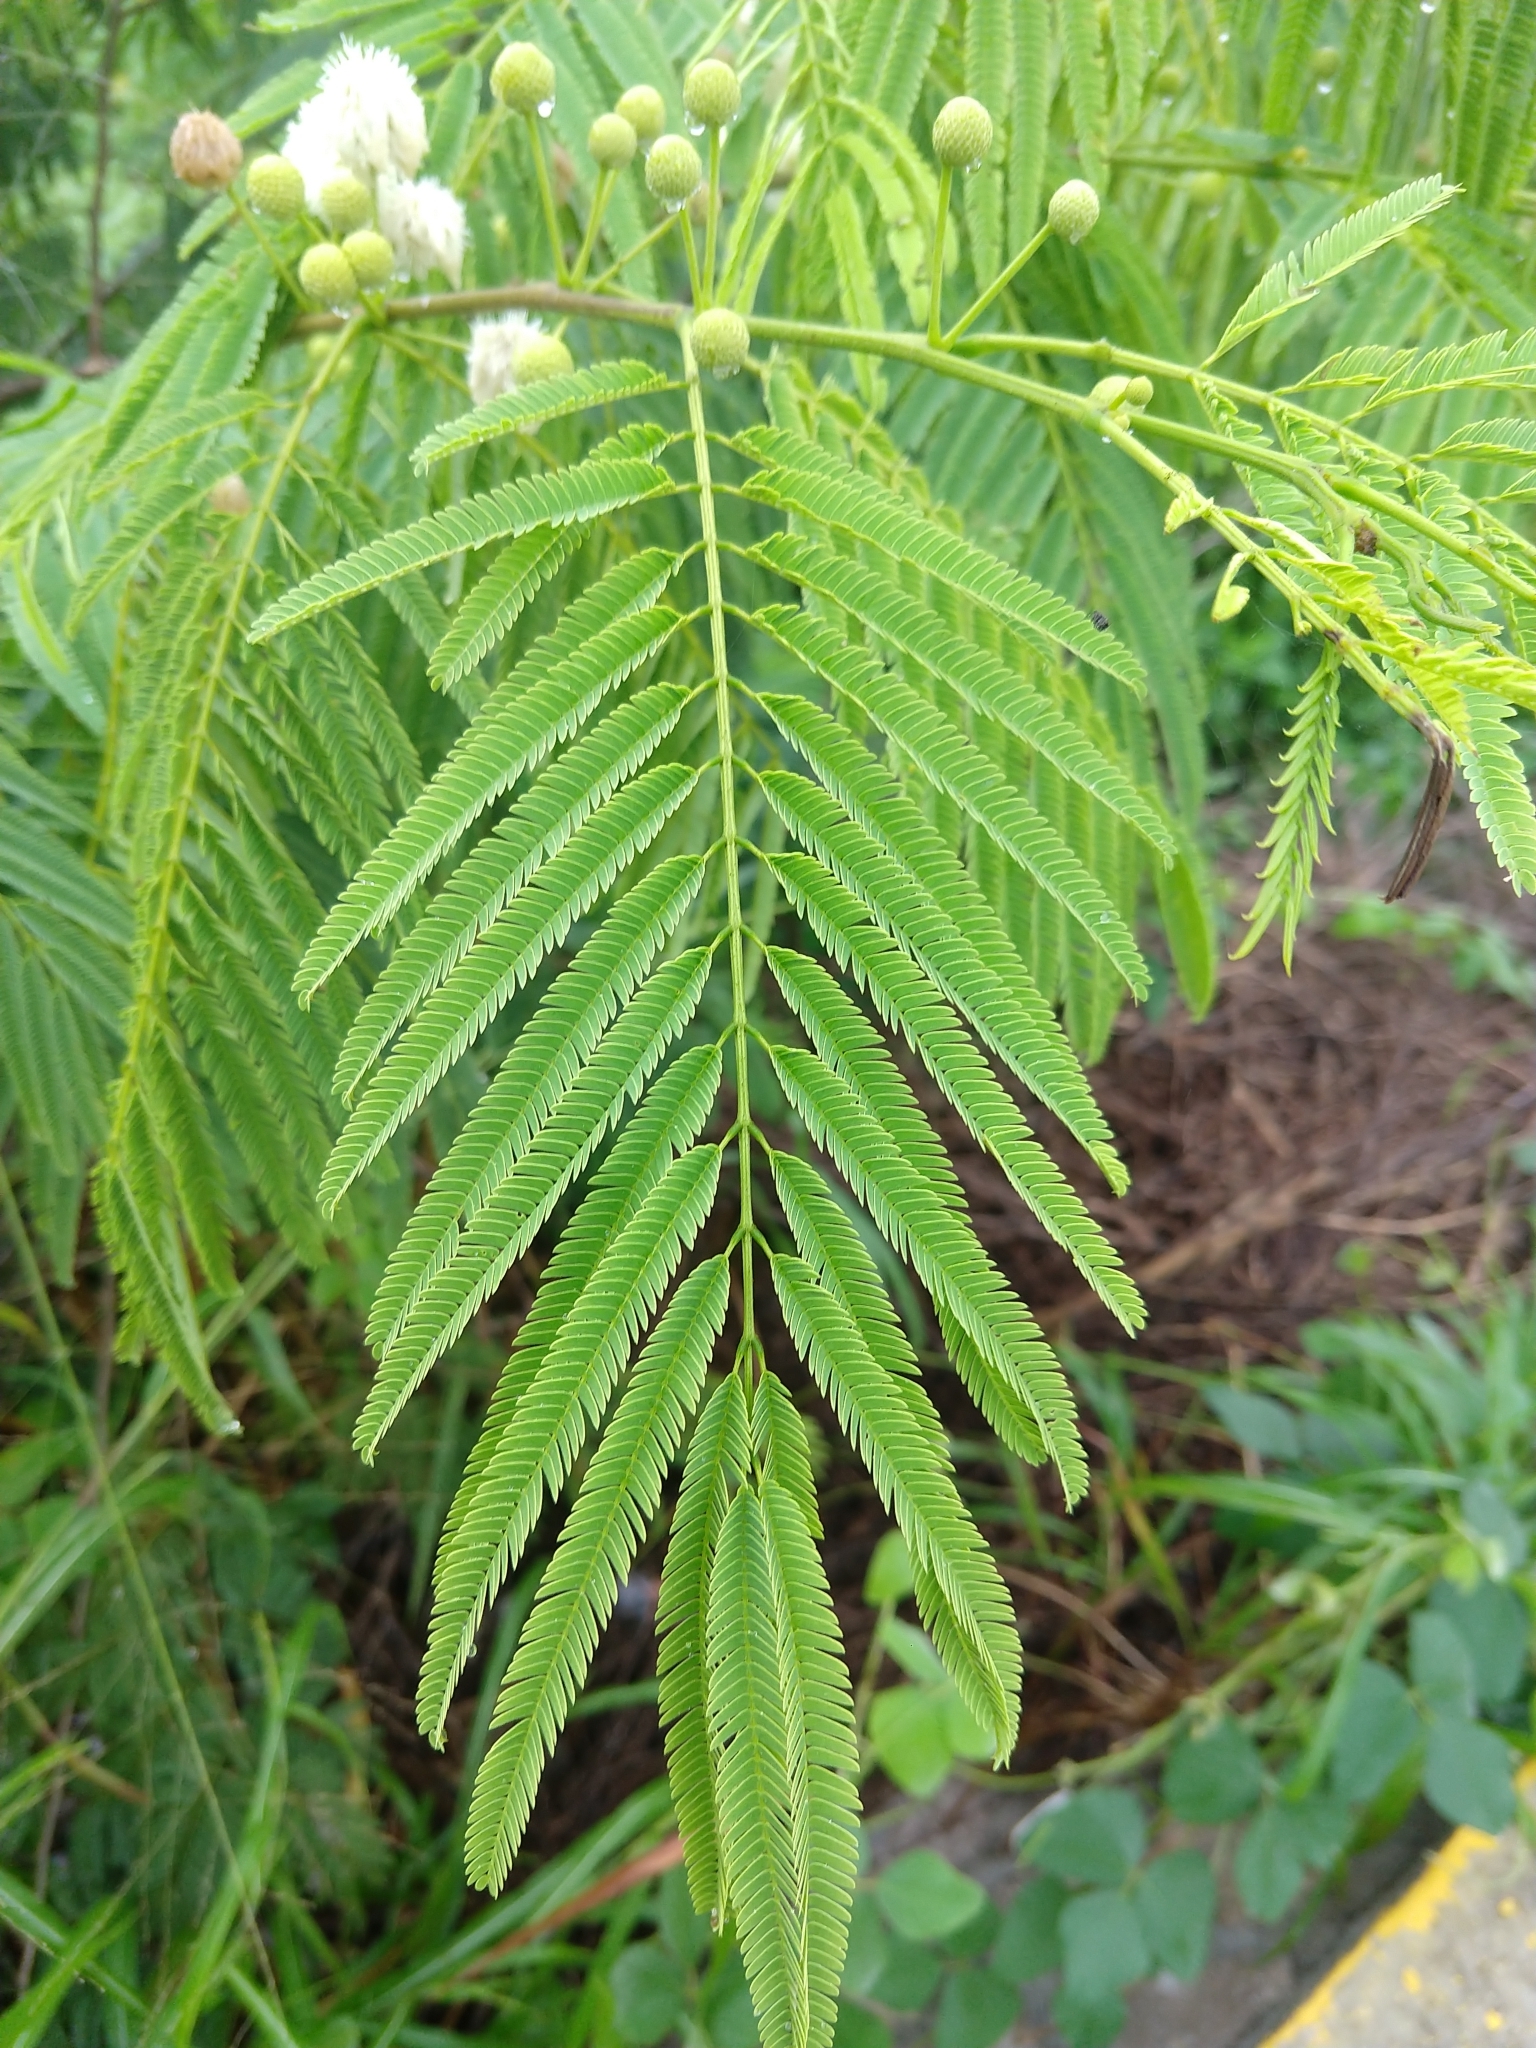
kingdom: Plantae
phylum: Tracheophyta
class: Magnoliopsida
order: Fabales
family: Fabaceae
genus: Leucaena
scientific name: Leucaena leucocephala
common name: White leadtree
